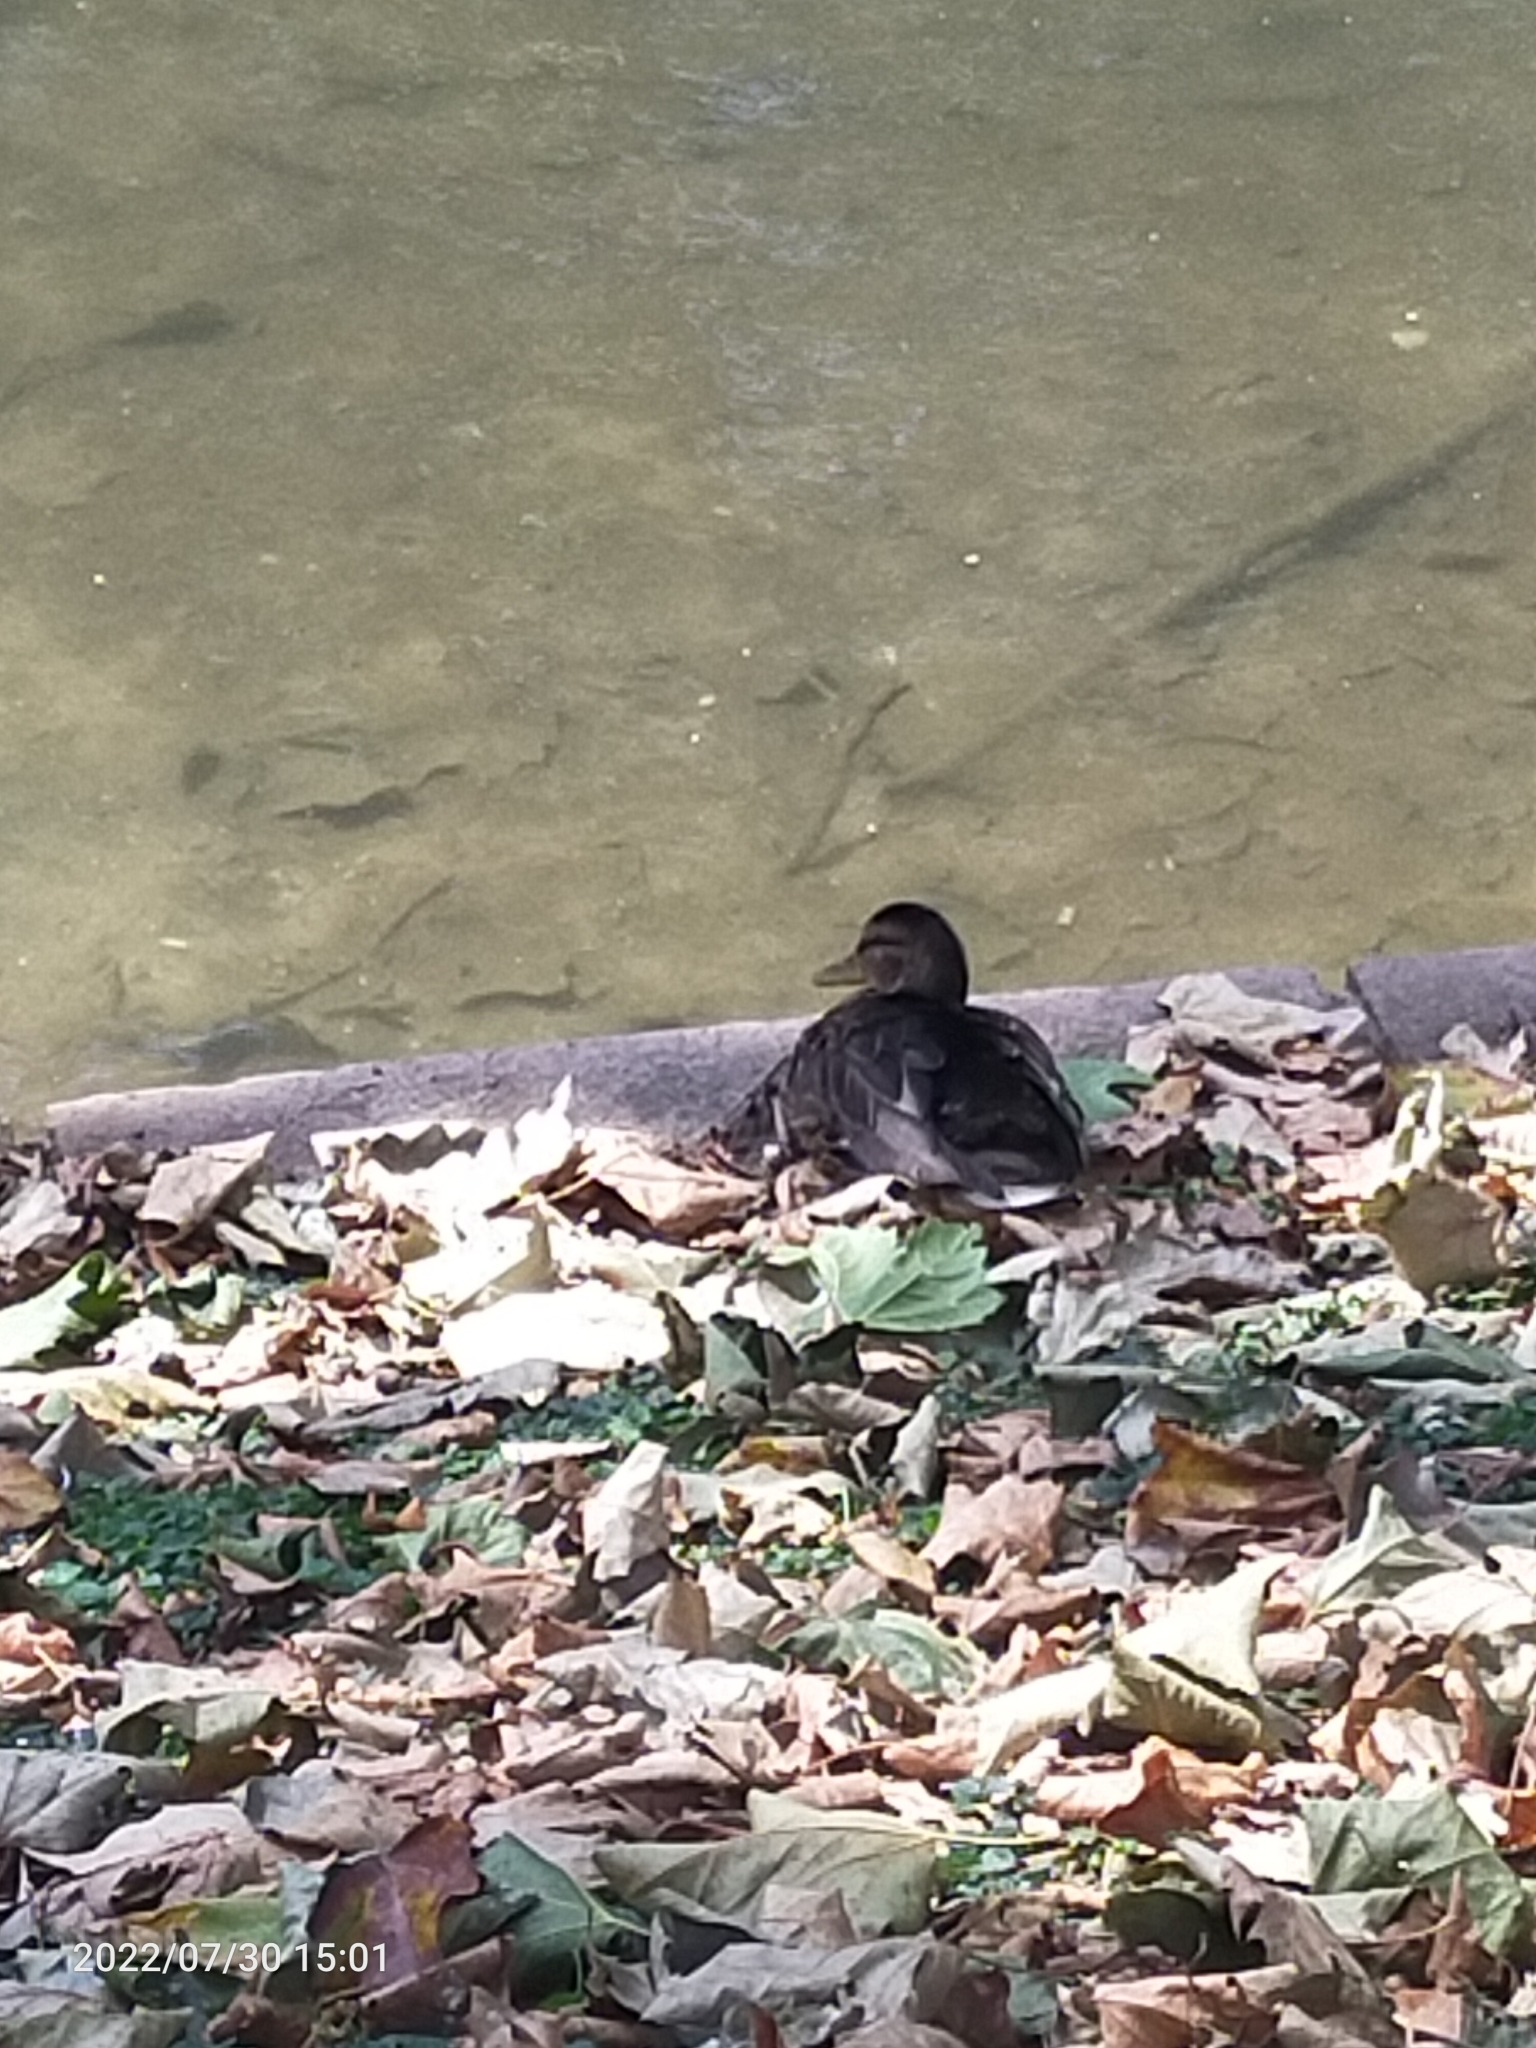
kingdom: Animalia
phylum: Chordata
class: Aves
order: Anseriformes
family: Anatidae
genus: Anas
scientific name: Anas platyrhynchos
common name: Mallard
